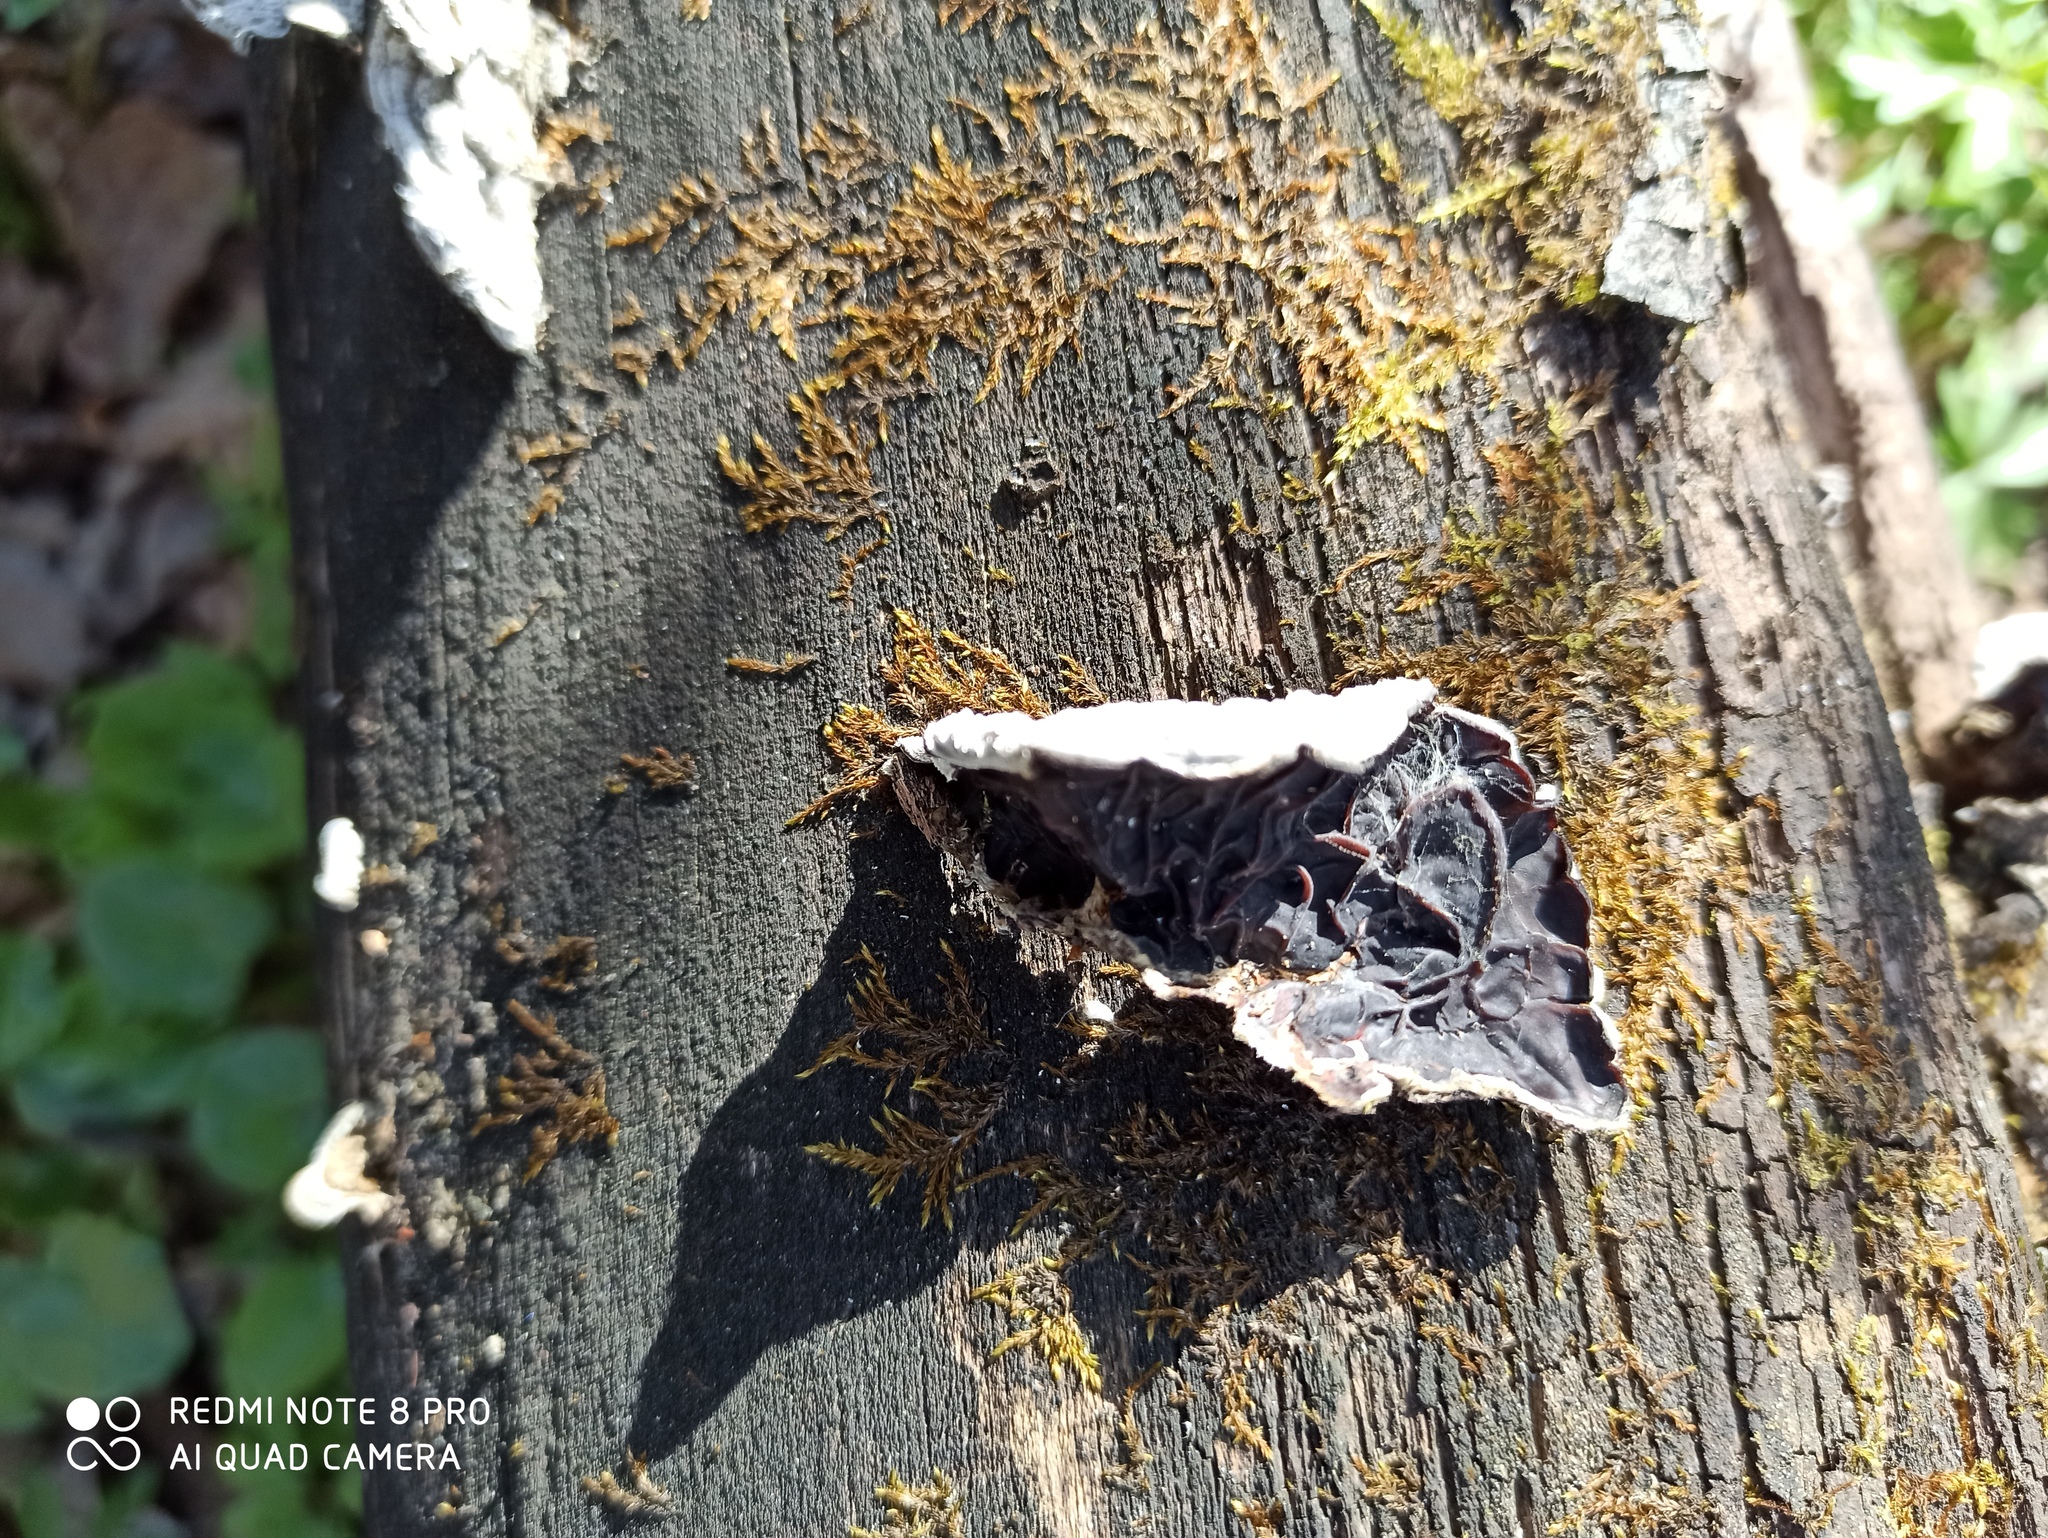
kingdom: Fungi
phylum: Basidiomycota
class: Agaricomycetes
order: Auriculariales
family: Auriculariaceae
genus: Auricularia
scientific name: Auricularia mesenterica
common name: Tripe fungus
